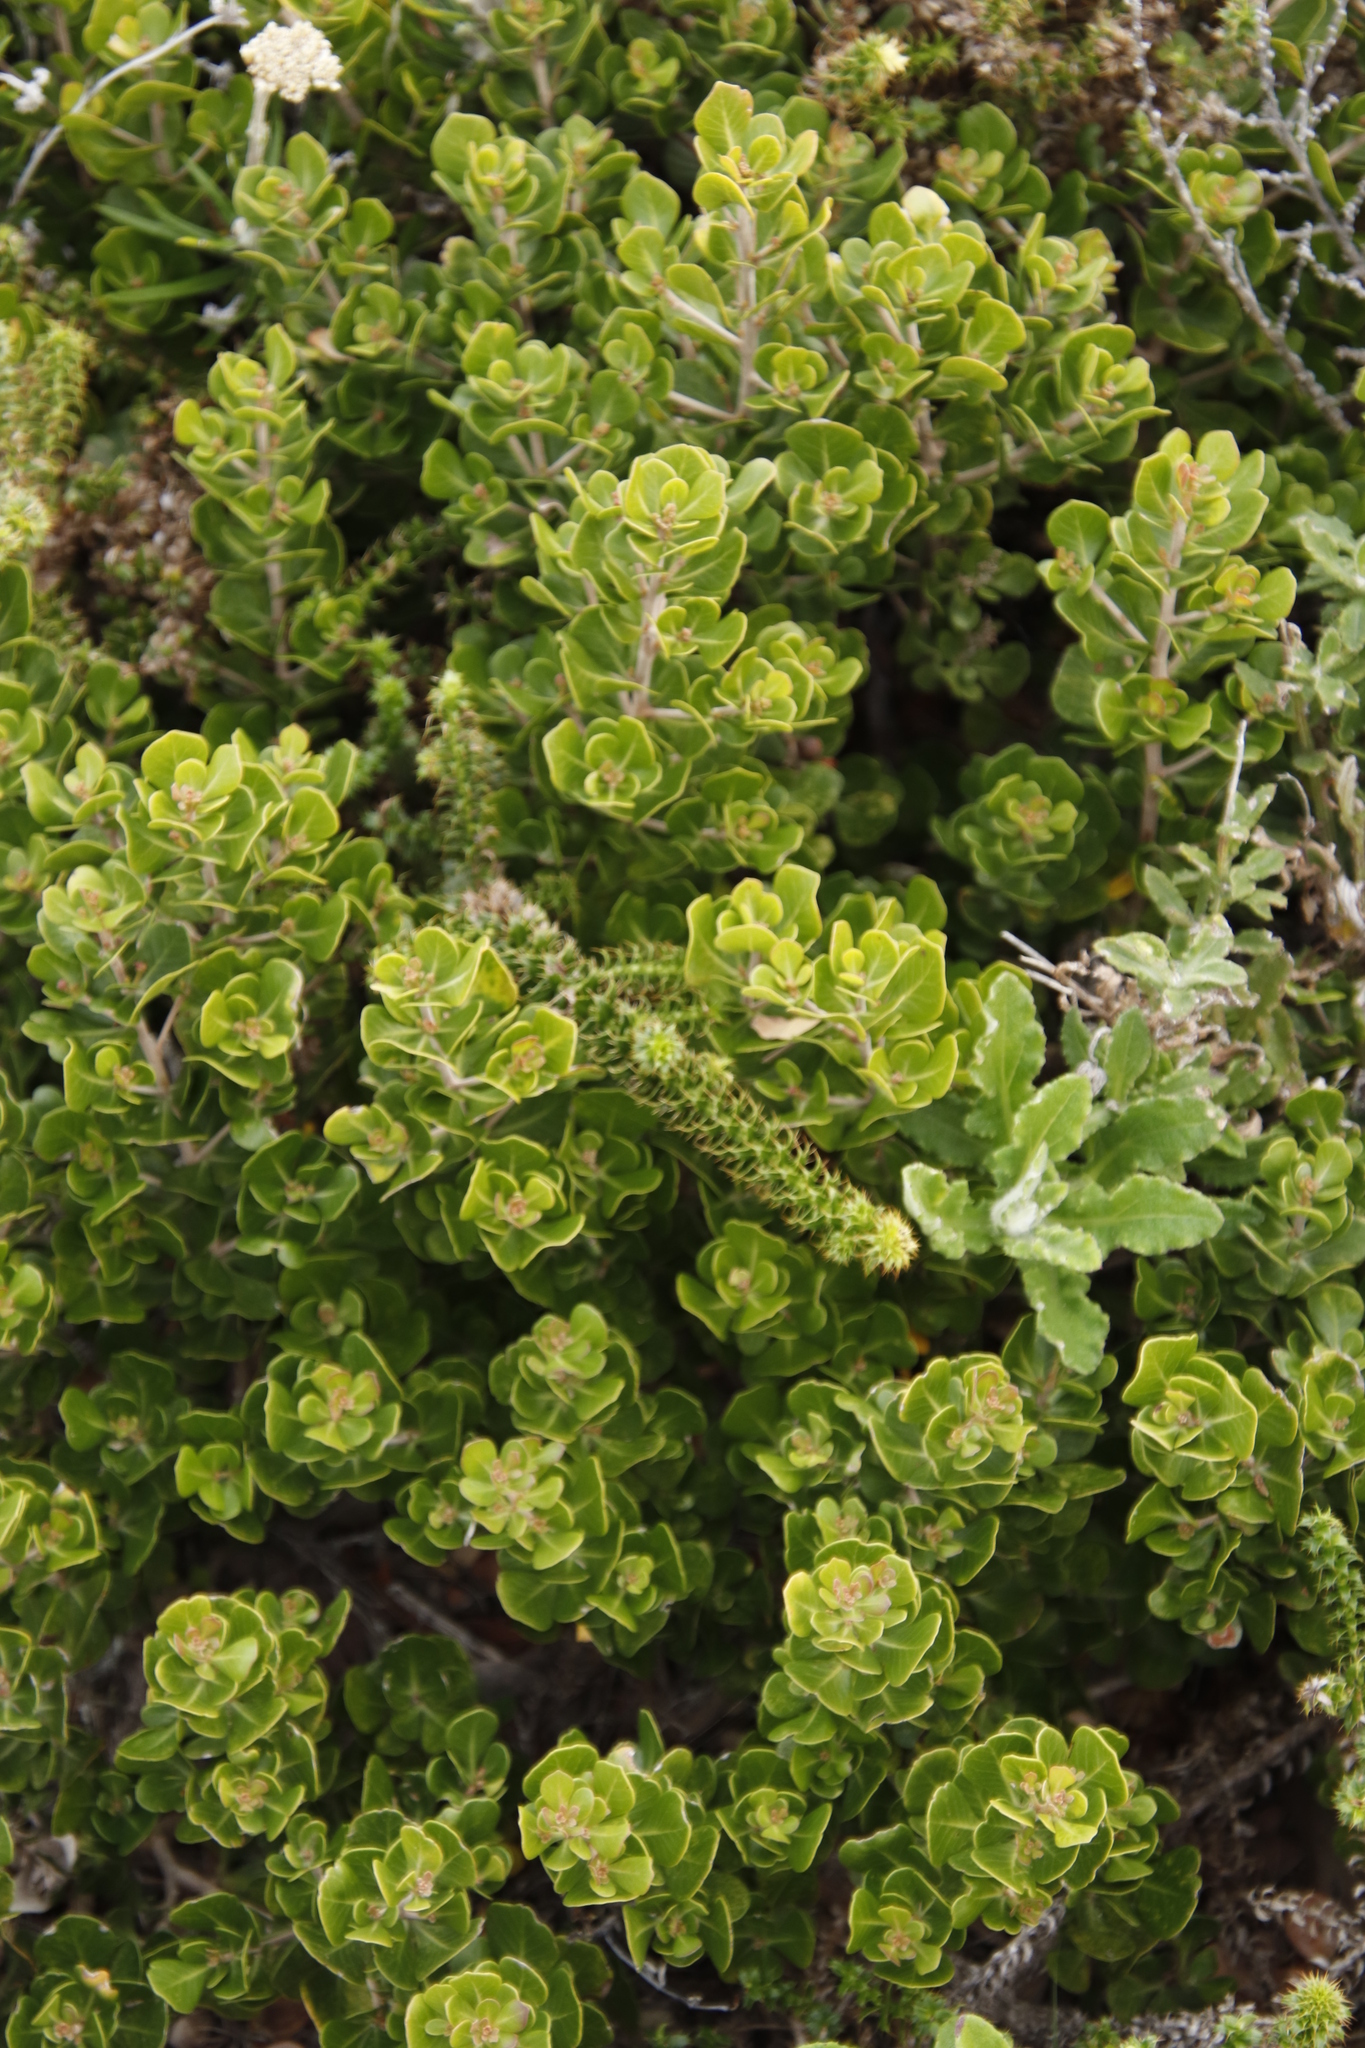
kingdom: Plantae
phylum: Tracheophyta
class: Magnoliopsida
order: Sapindales
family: Anacardiaceae
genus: Searsia
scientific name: Searsia lucida
